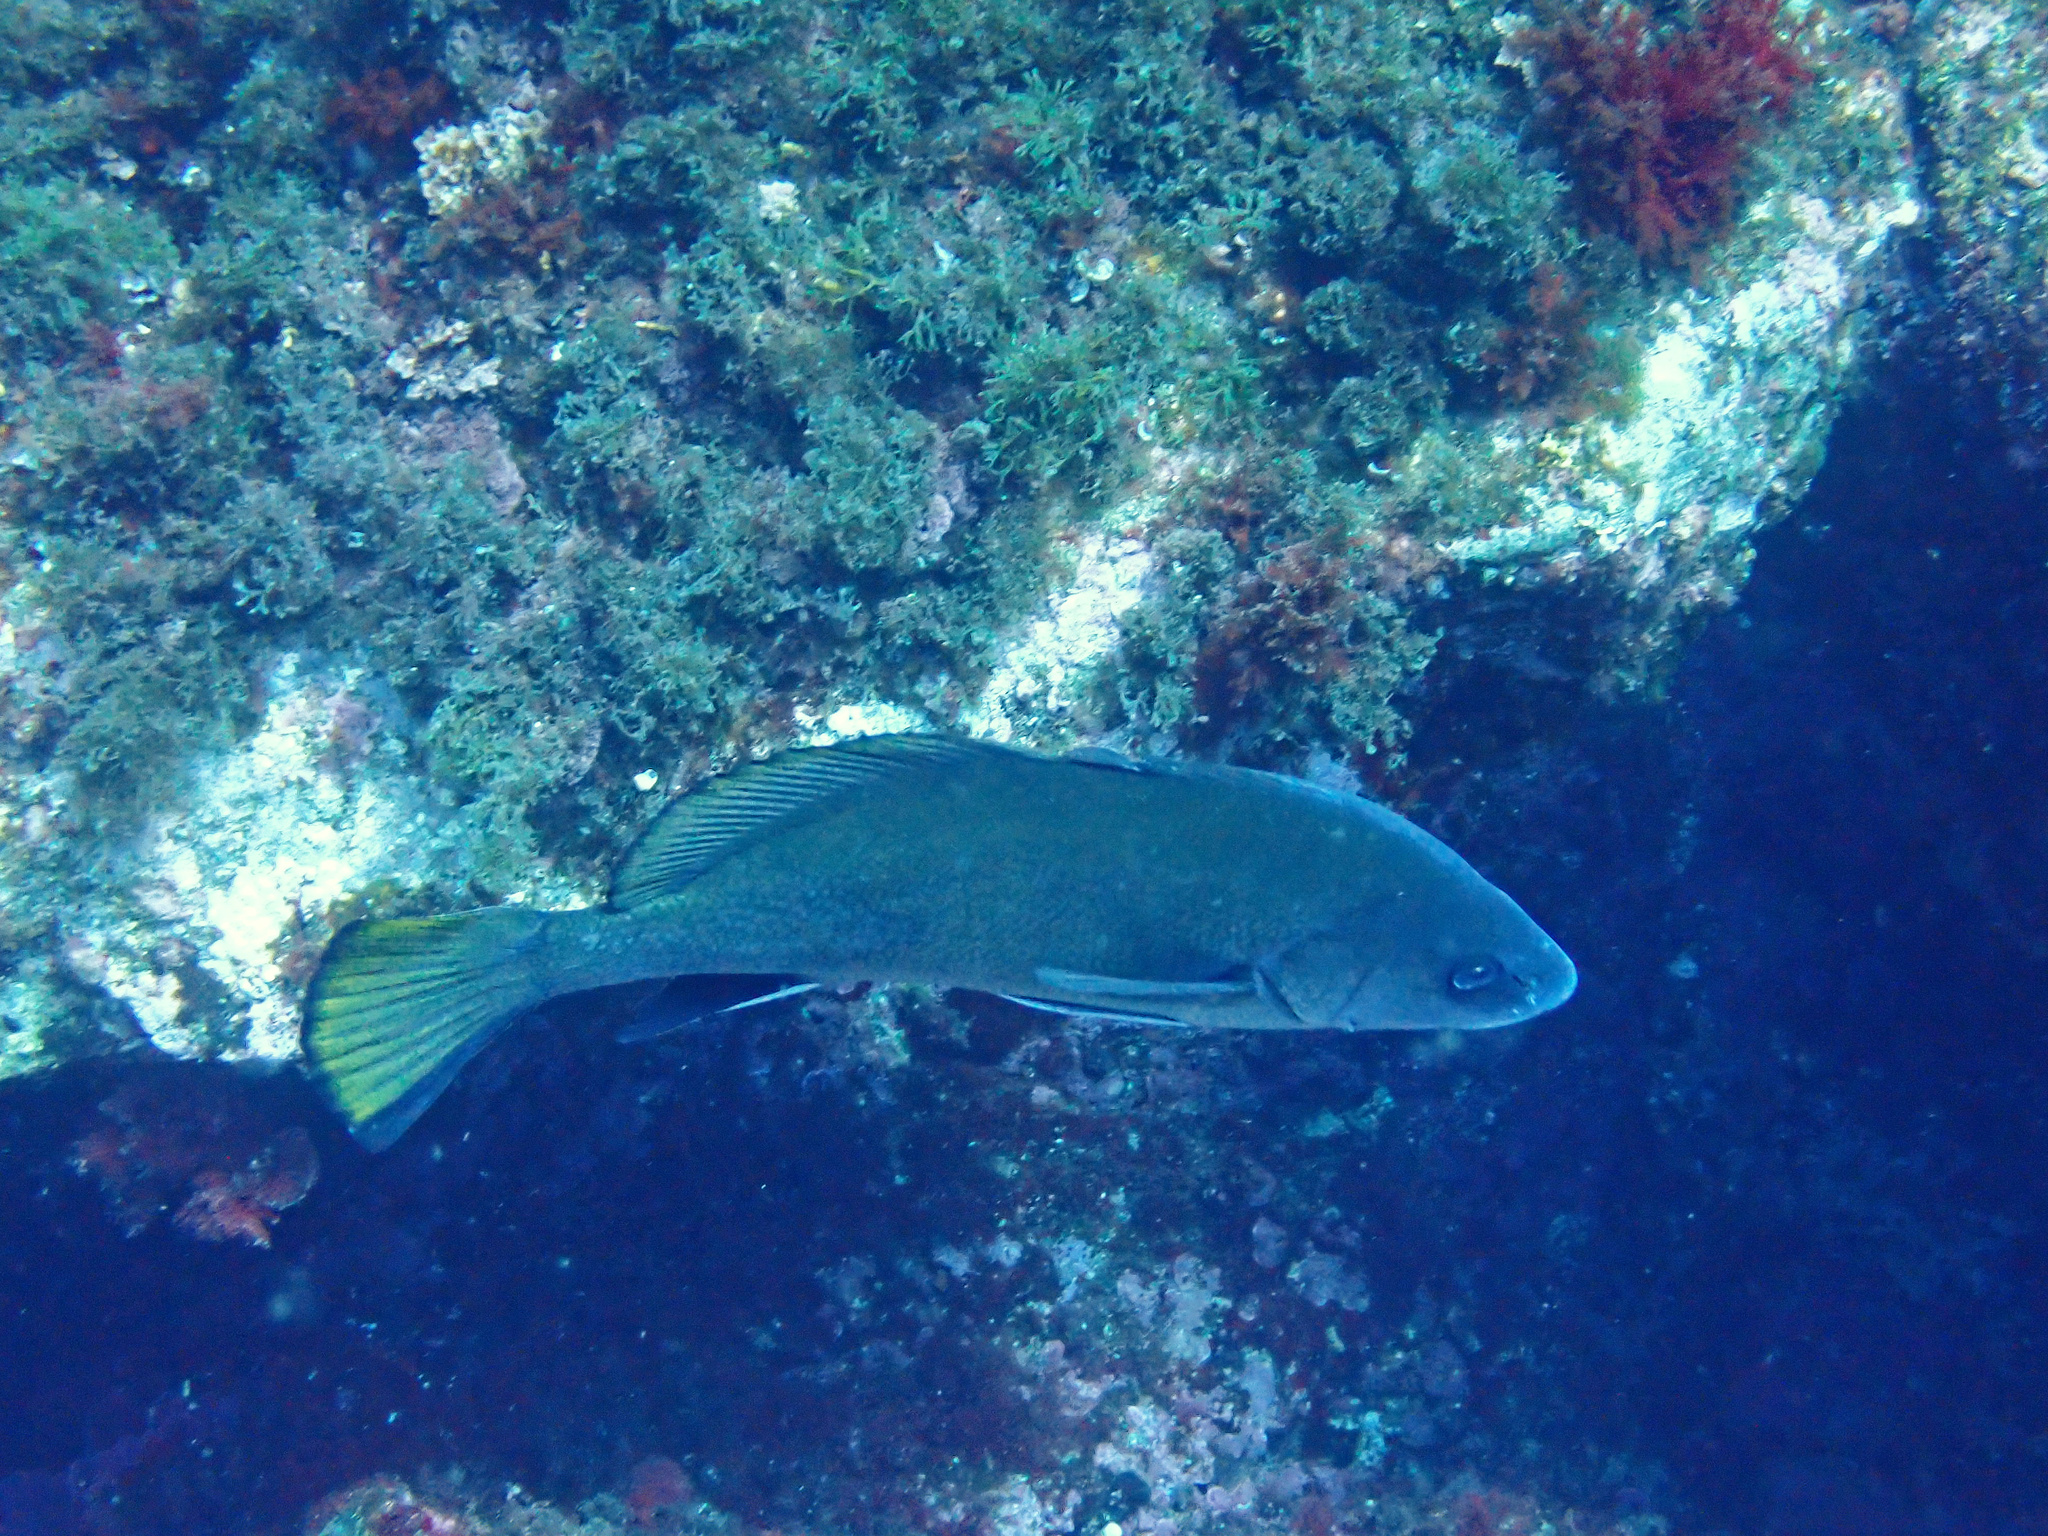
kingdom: Animalia
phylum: Chordata
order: Perciformes
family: Sciaenidae
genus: Sciaena
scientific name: Sciaena umbra
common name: Brown meagre
